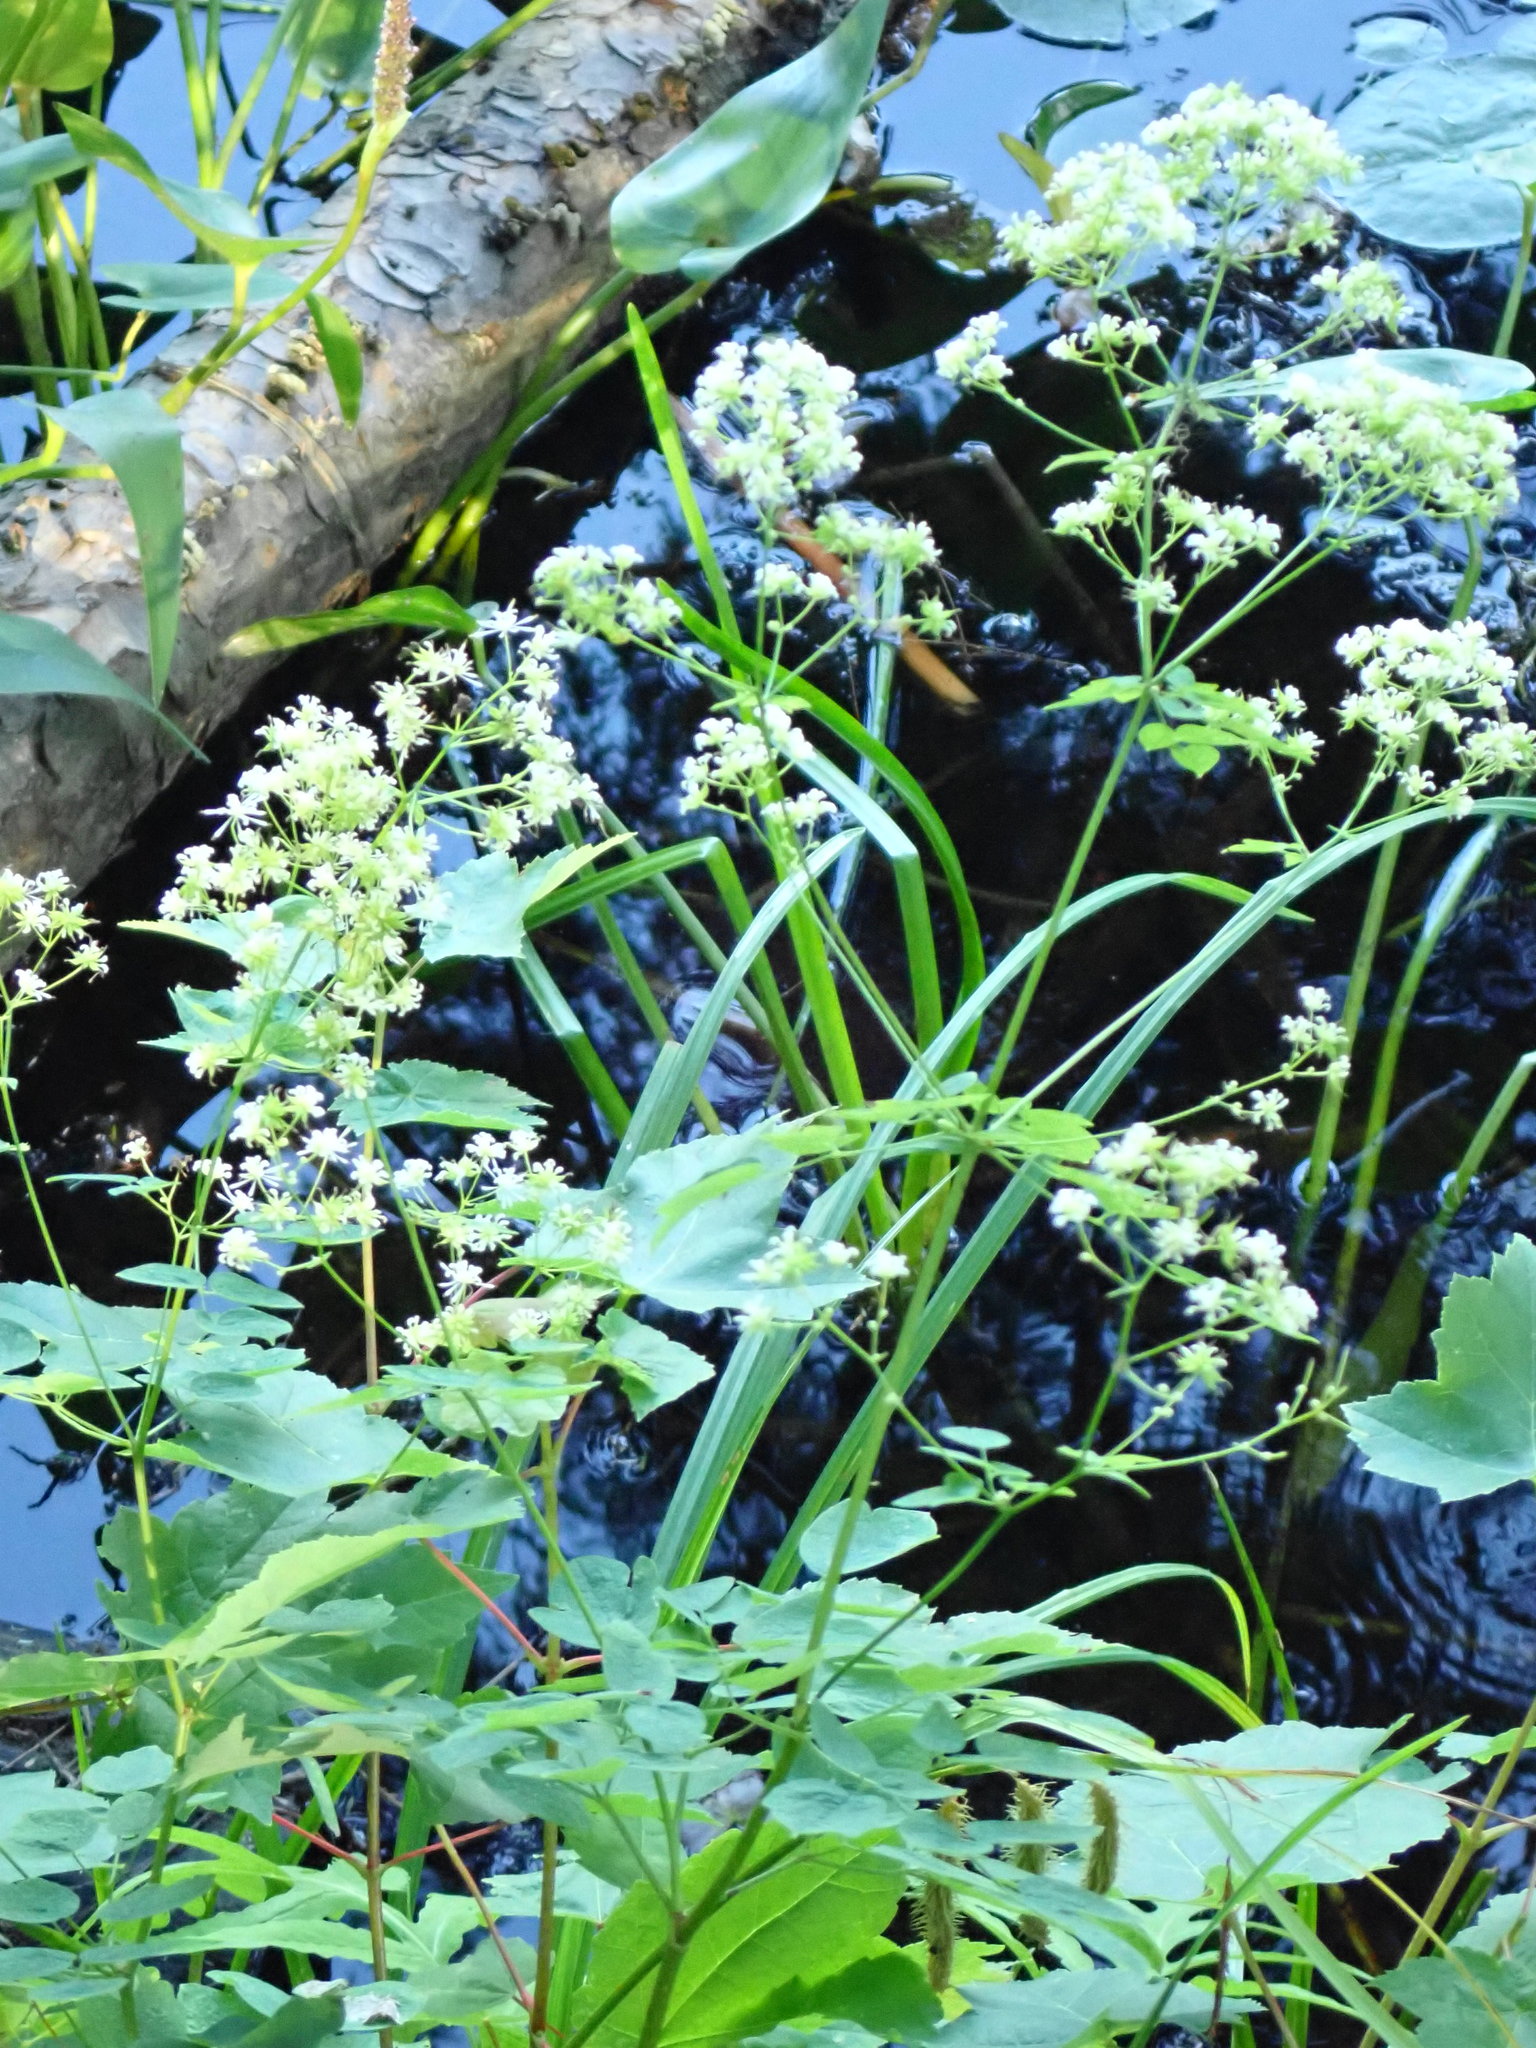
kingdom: Plantae
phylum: Tracheophyta
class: Magnoliopsida
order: Ranunculales
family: Ranunculaceae
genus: Thalictrum
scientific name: Thalictrum pubescens
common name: King-of-the-meadow
